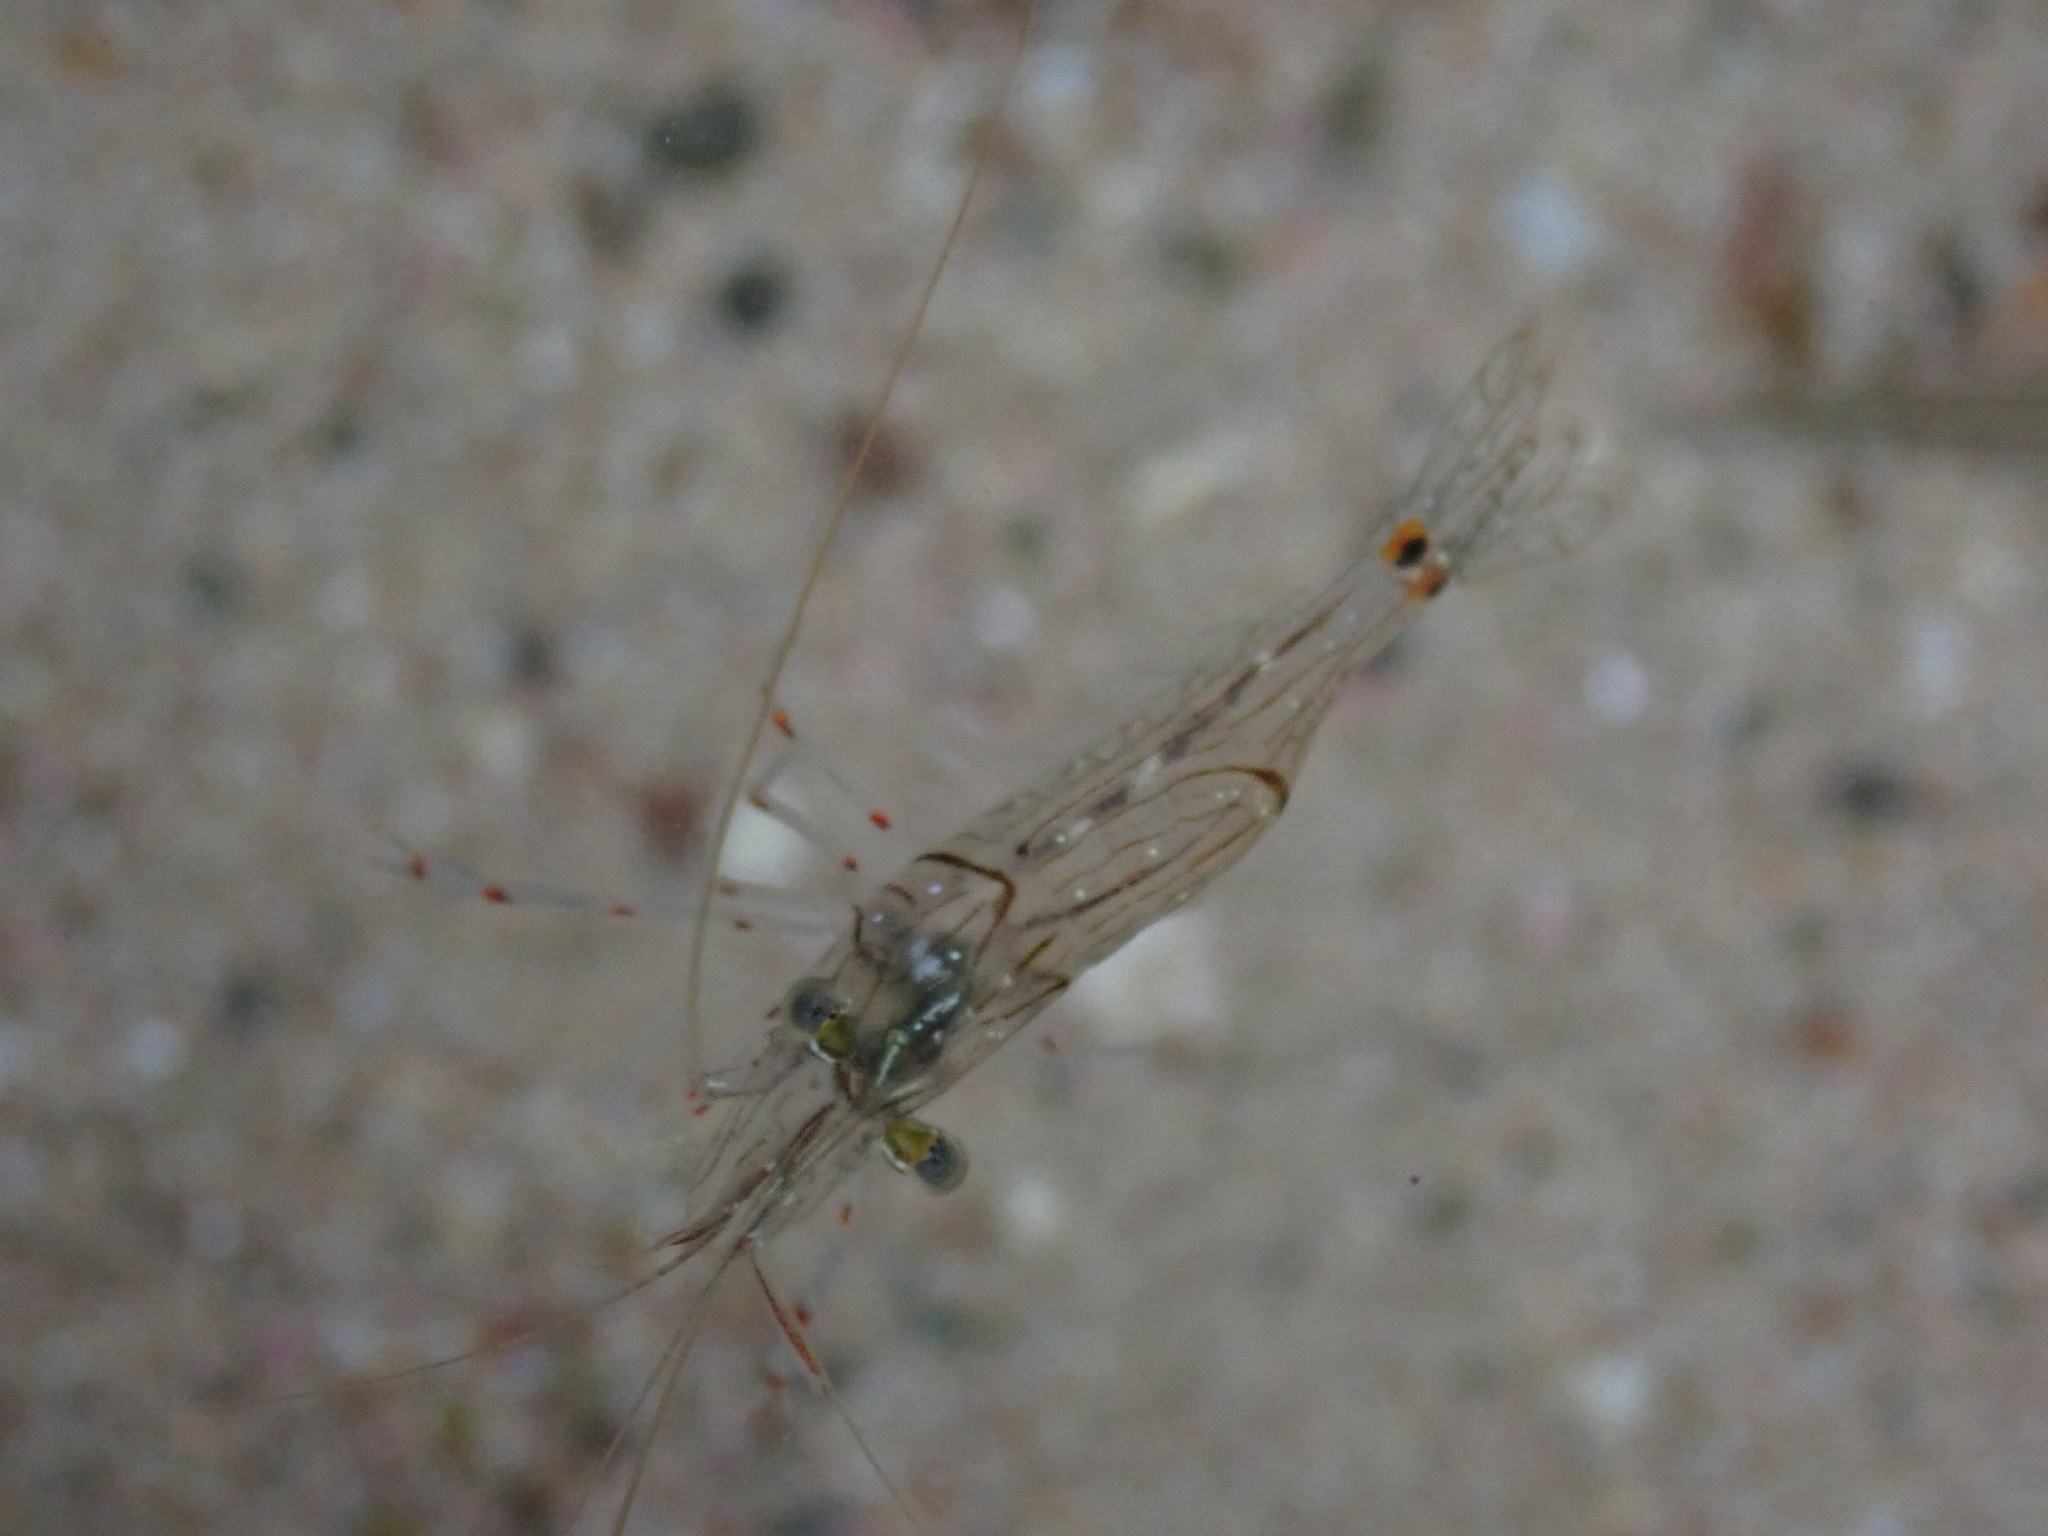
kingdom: Animalia
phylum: Arthropoda
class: Malacostraca
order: Decapoda
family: Palaemonidae
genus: Palaemon
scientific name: Palaemon affinis
